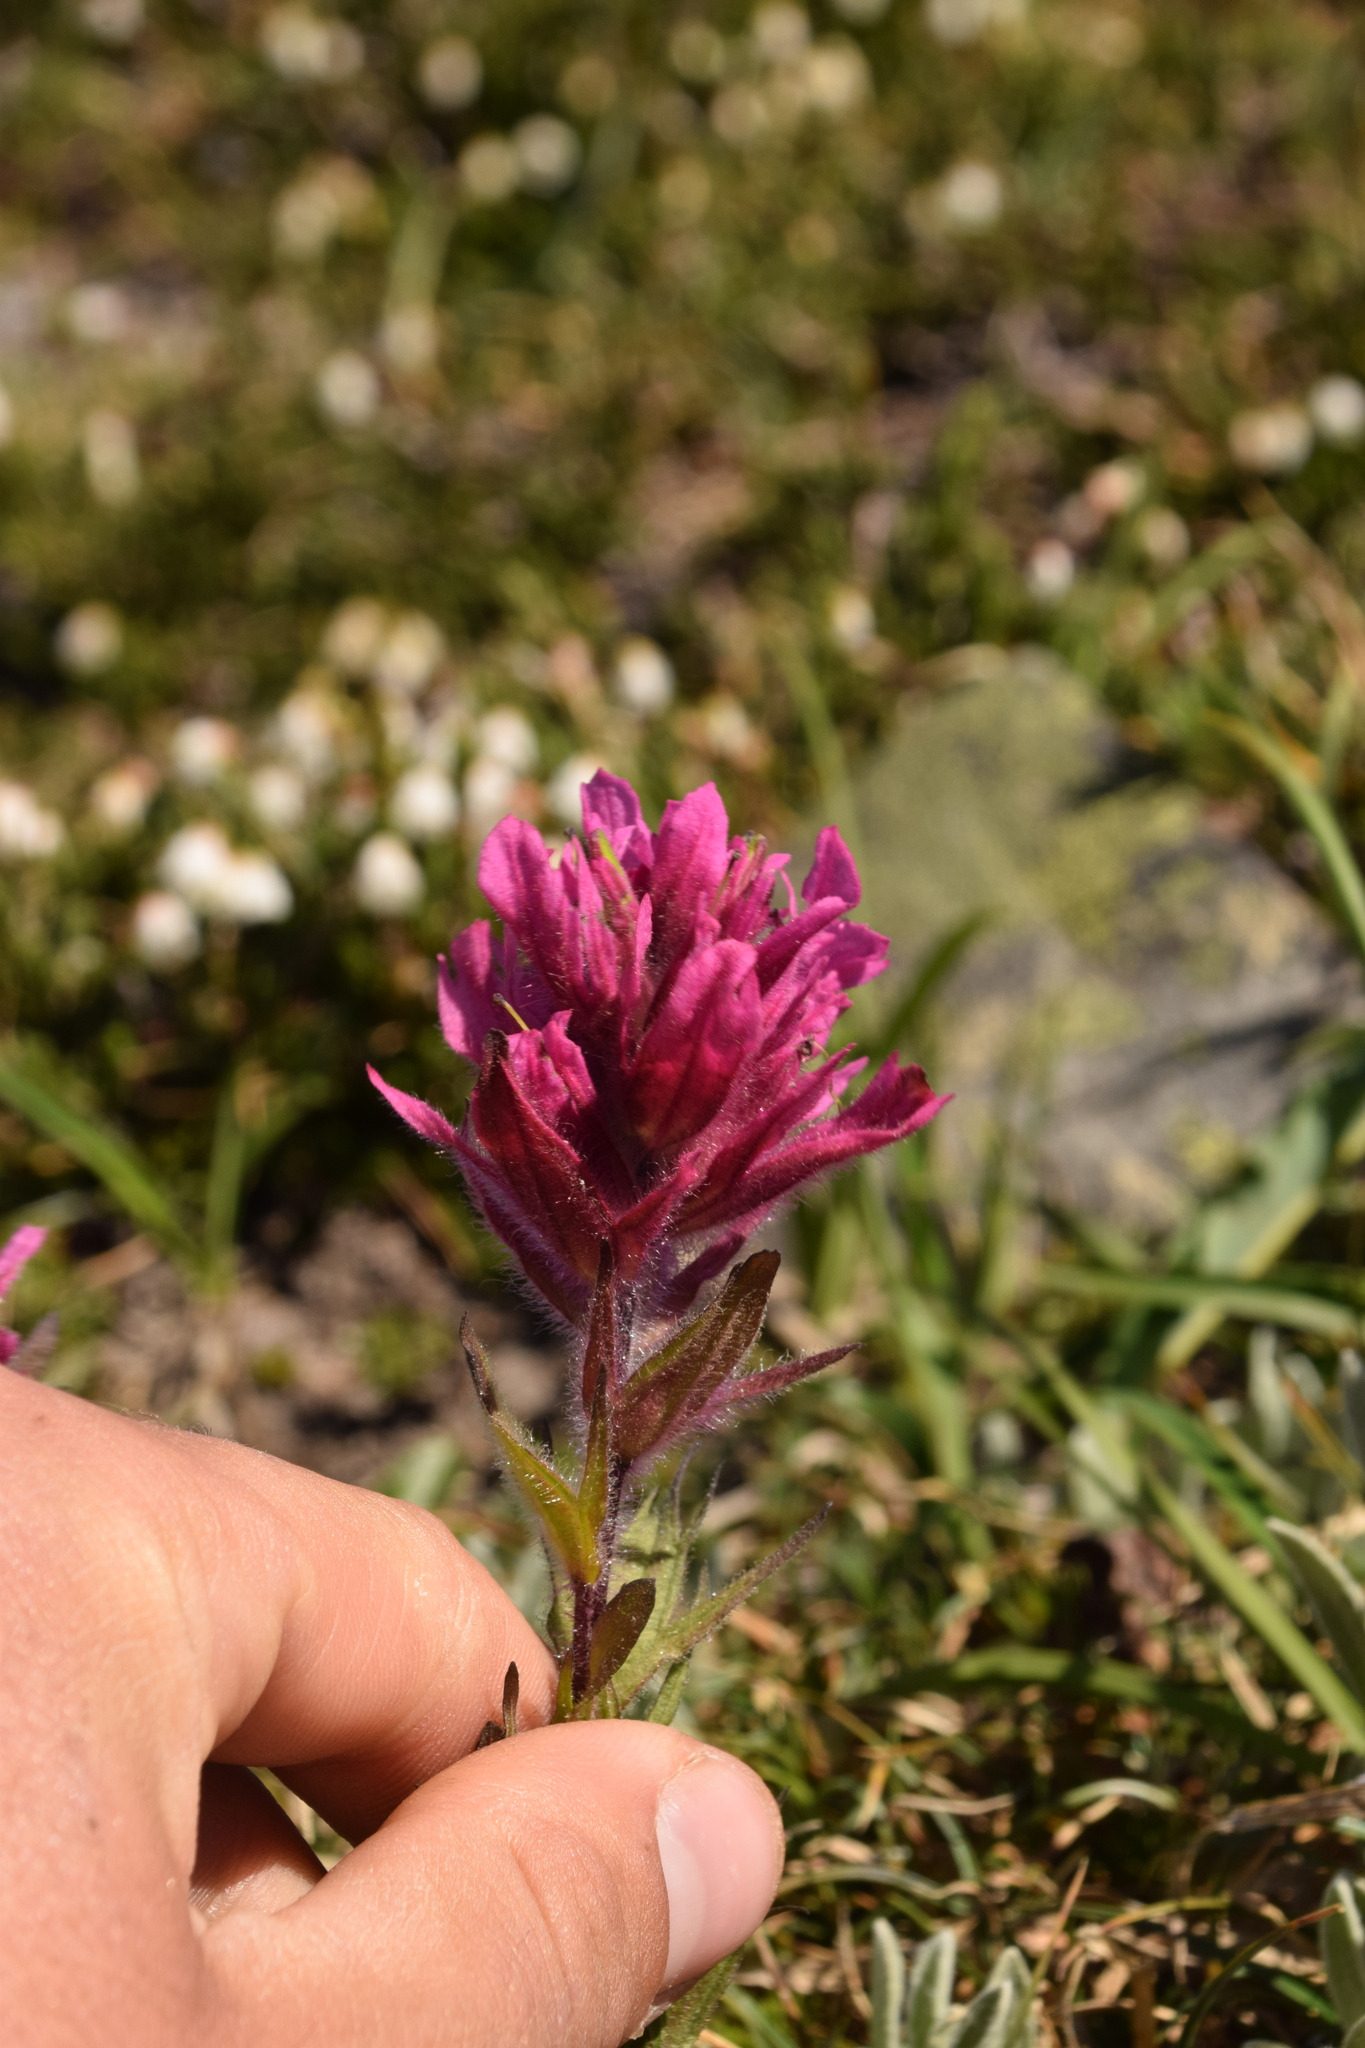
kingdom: Plantae
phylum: Tracheophyta
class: Magnoliopsida
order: Lamiales
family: Orobanchaceae
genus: Castilleja
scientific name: Castilleja parviflora
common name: Mountain paintbrush
